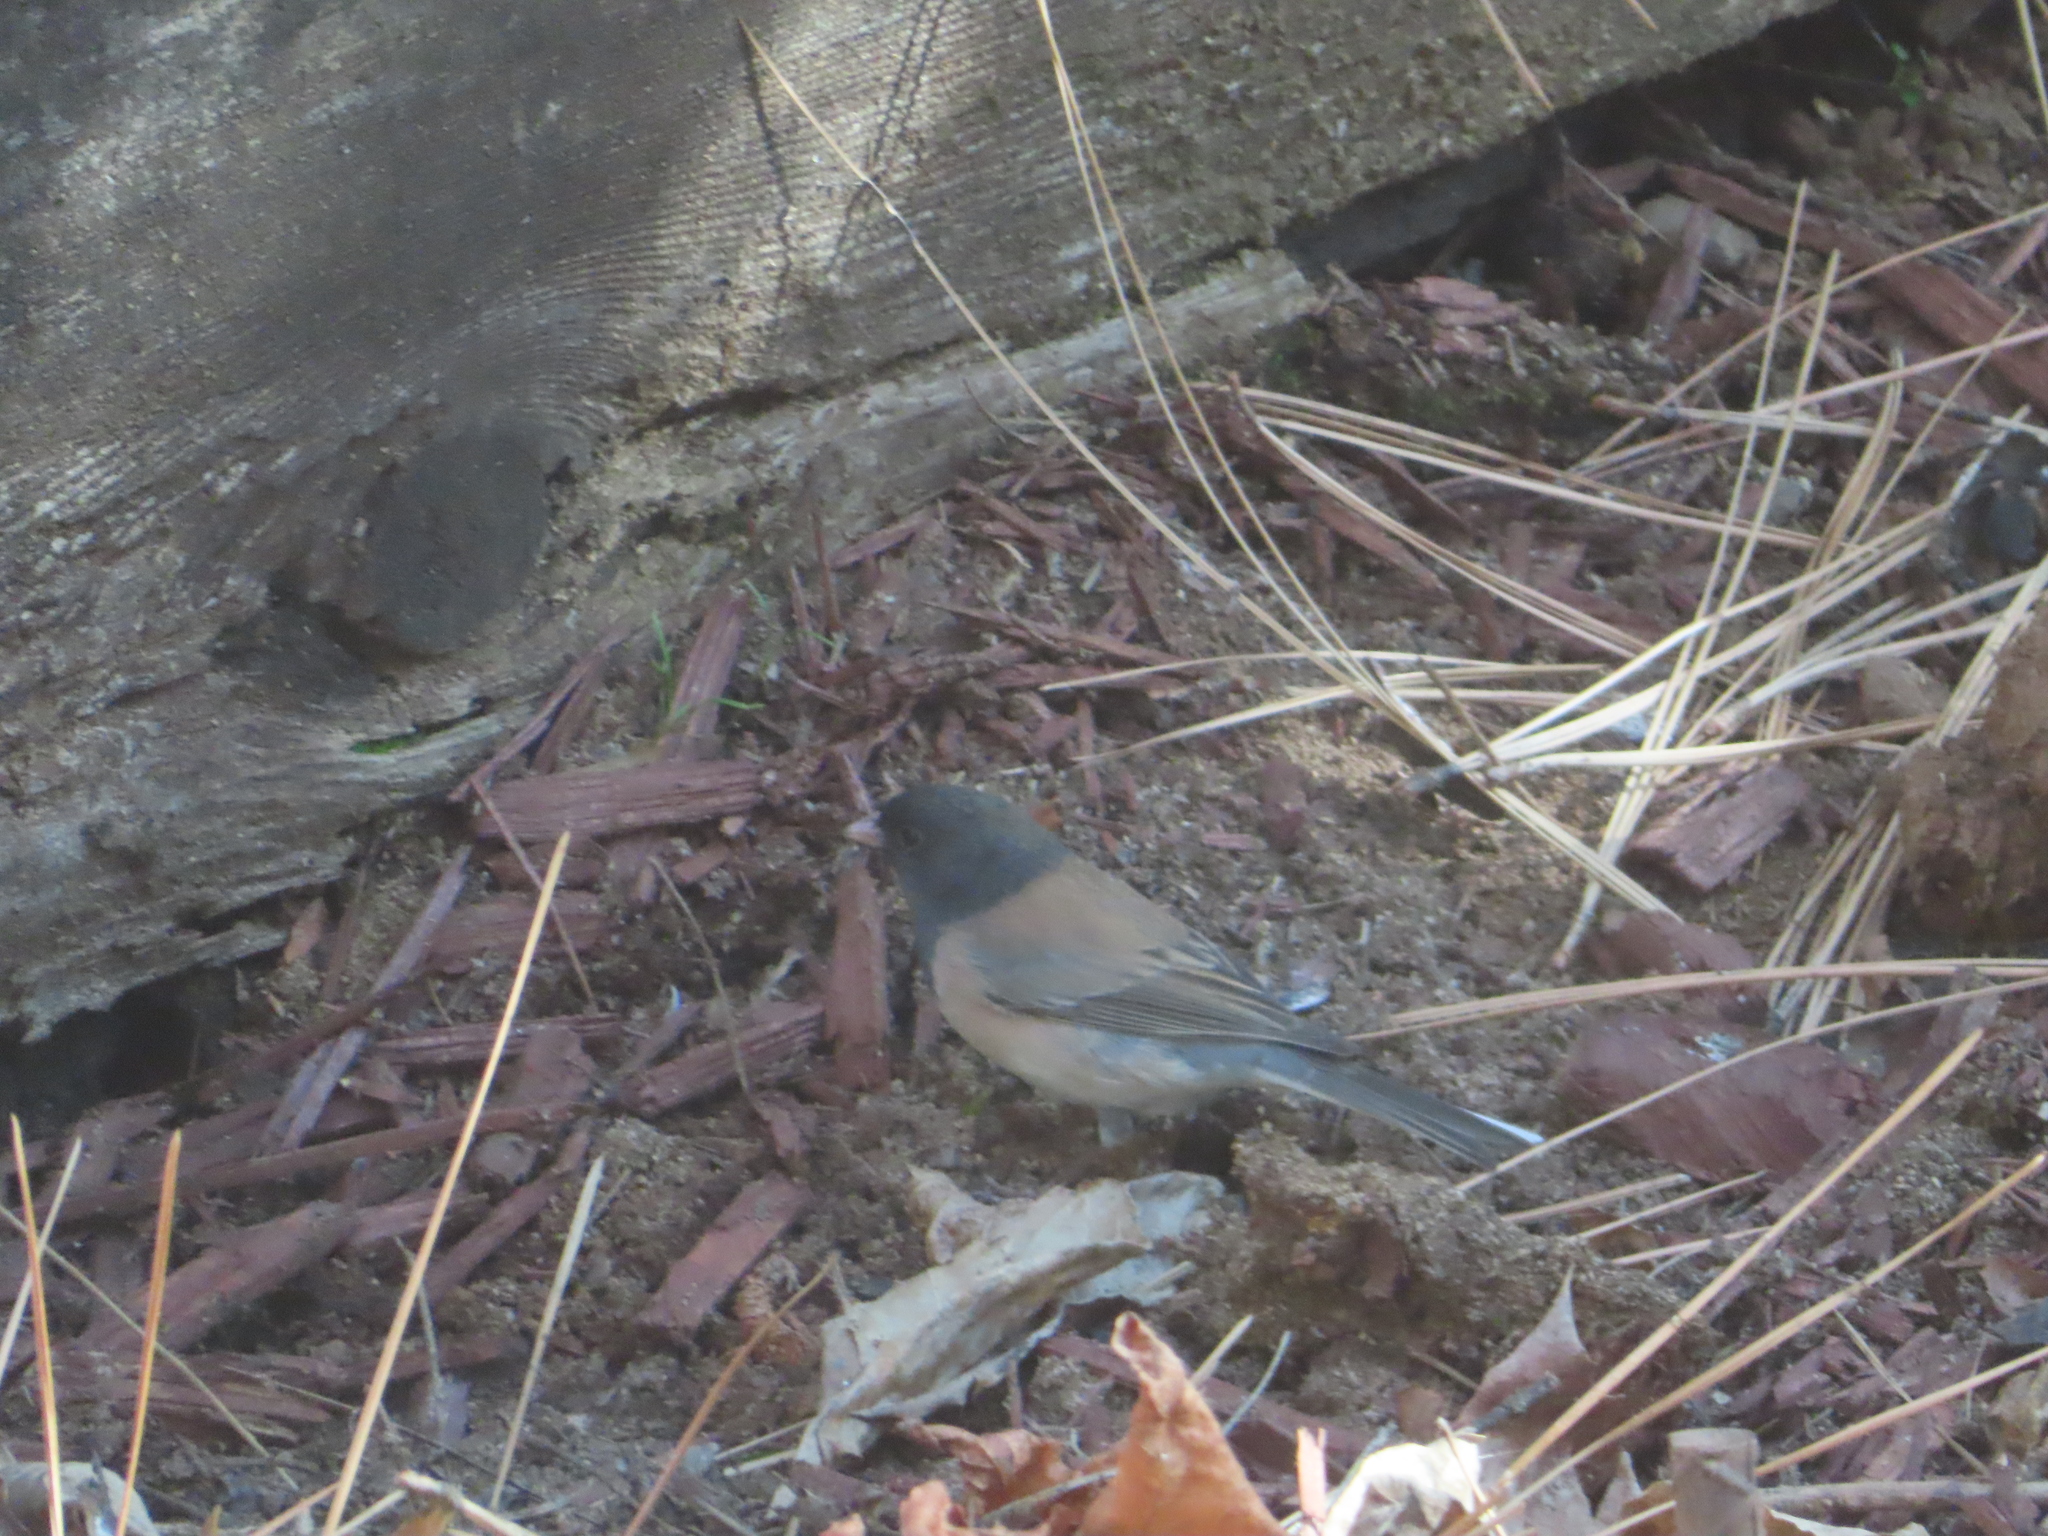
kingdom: Animalia
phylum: Chordata
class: Aves
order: Passeriformes
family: Passerellidae
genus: Junco
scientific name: Junco hyemalis
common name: Dark-eyed junco
